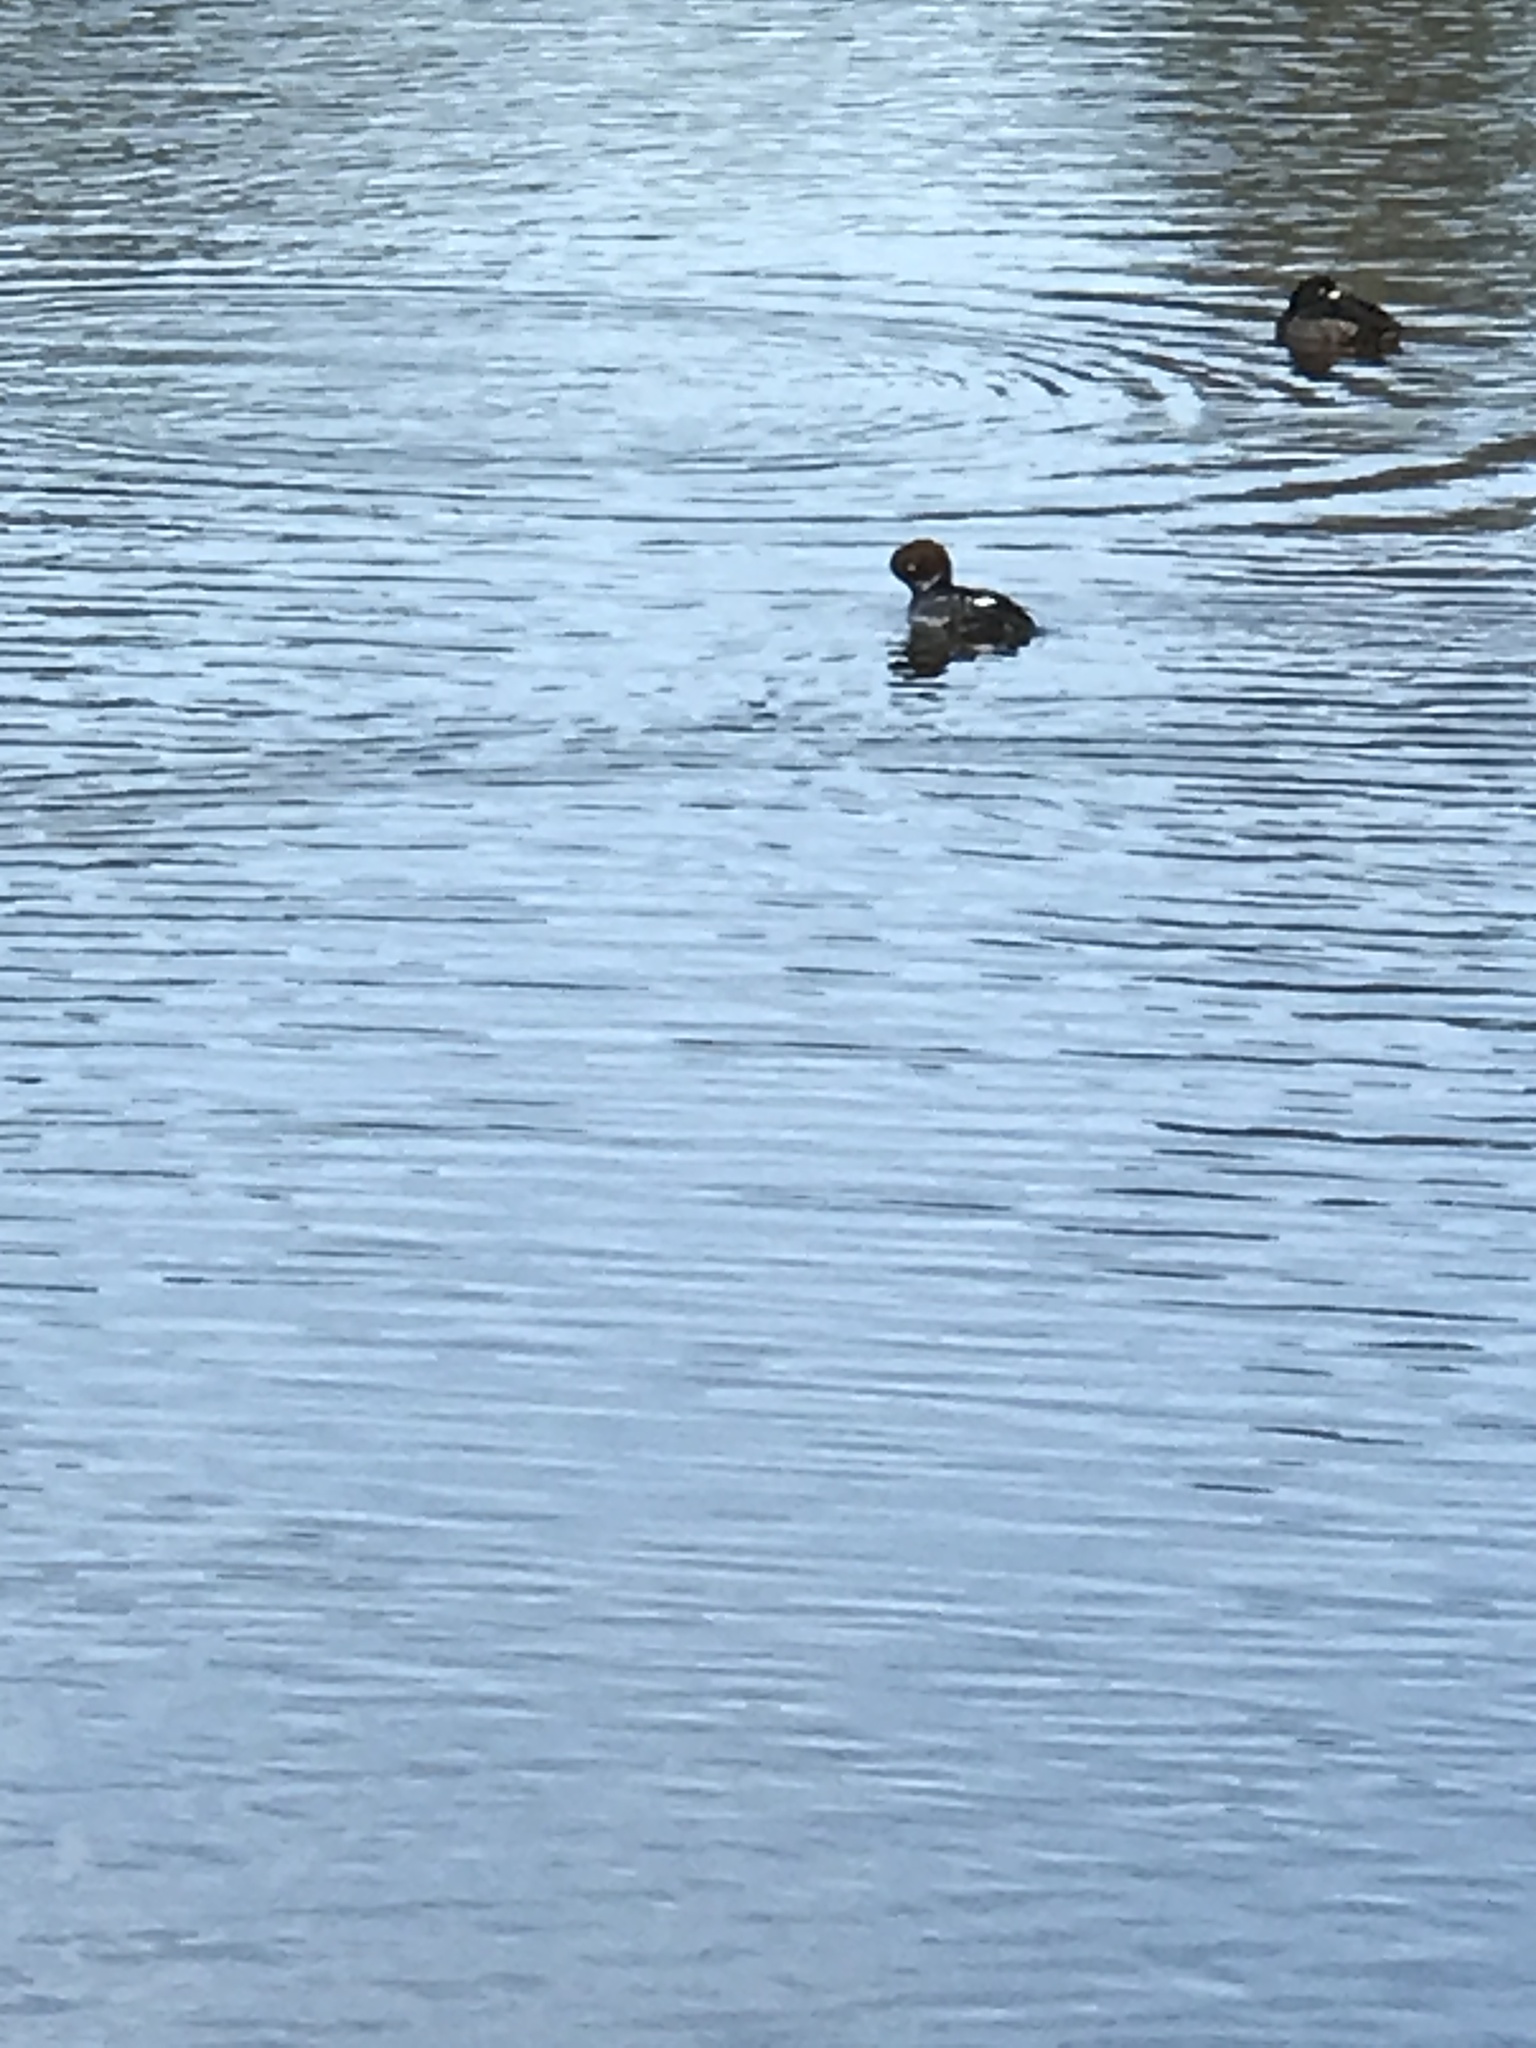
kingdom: Animalia
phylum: Chordata
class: Aves
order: Anseriformes
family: Anatidae
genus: Bucephala
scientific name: Bucephala clangula
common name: Common goldeneye
